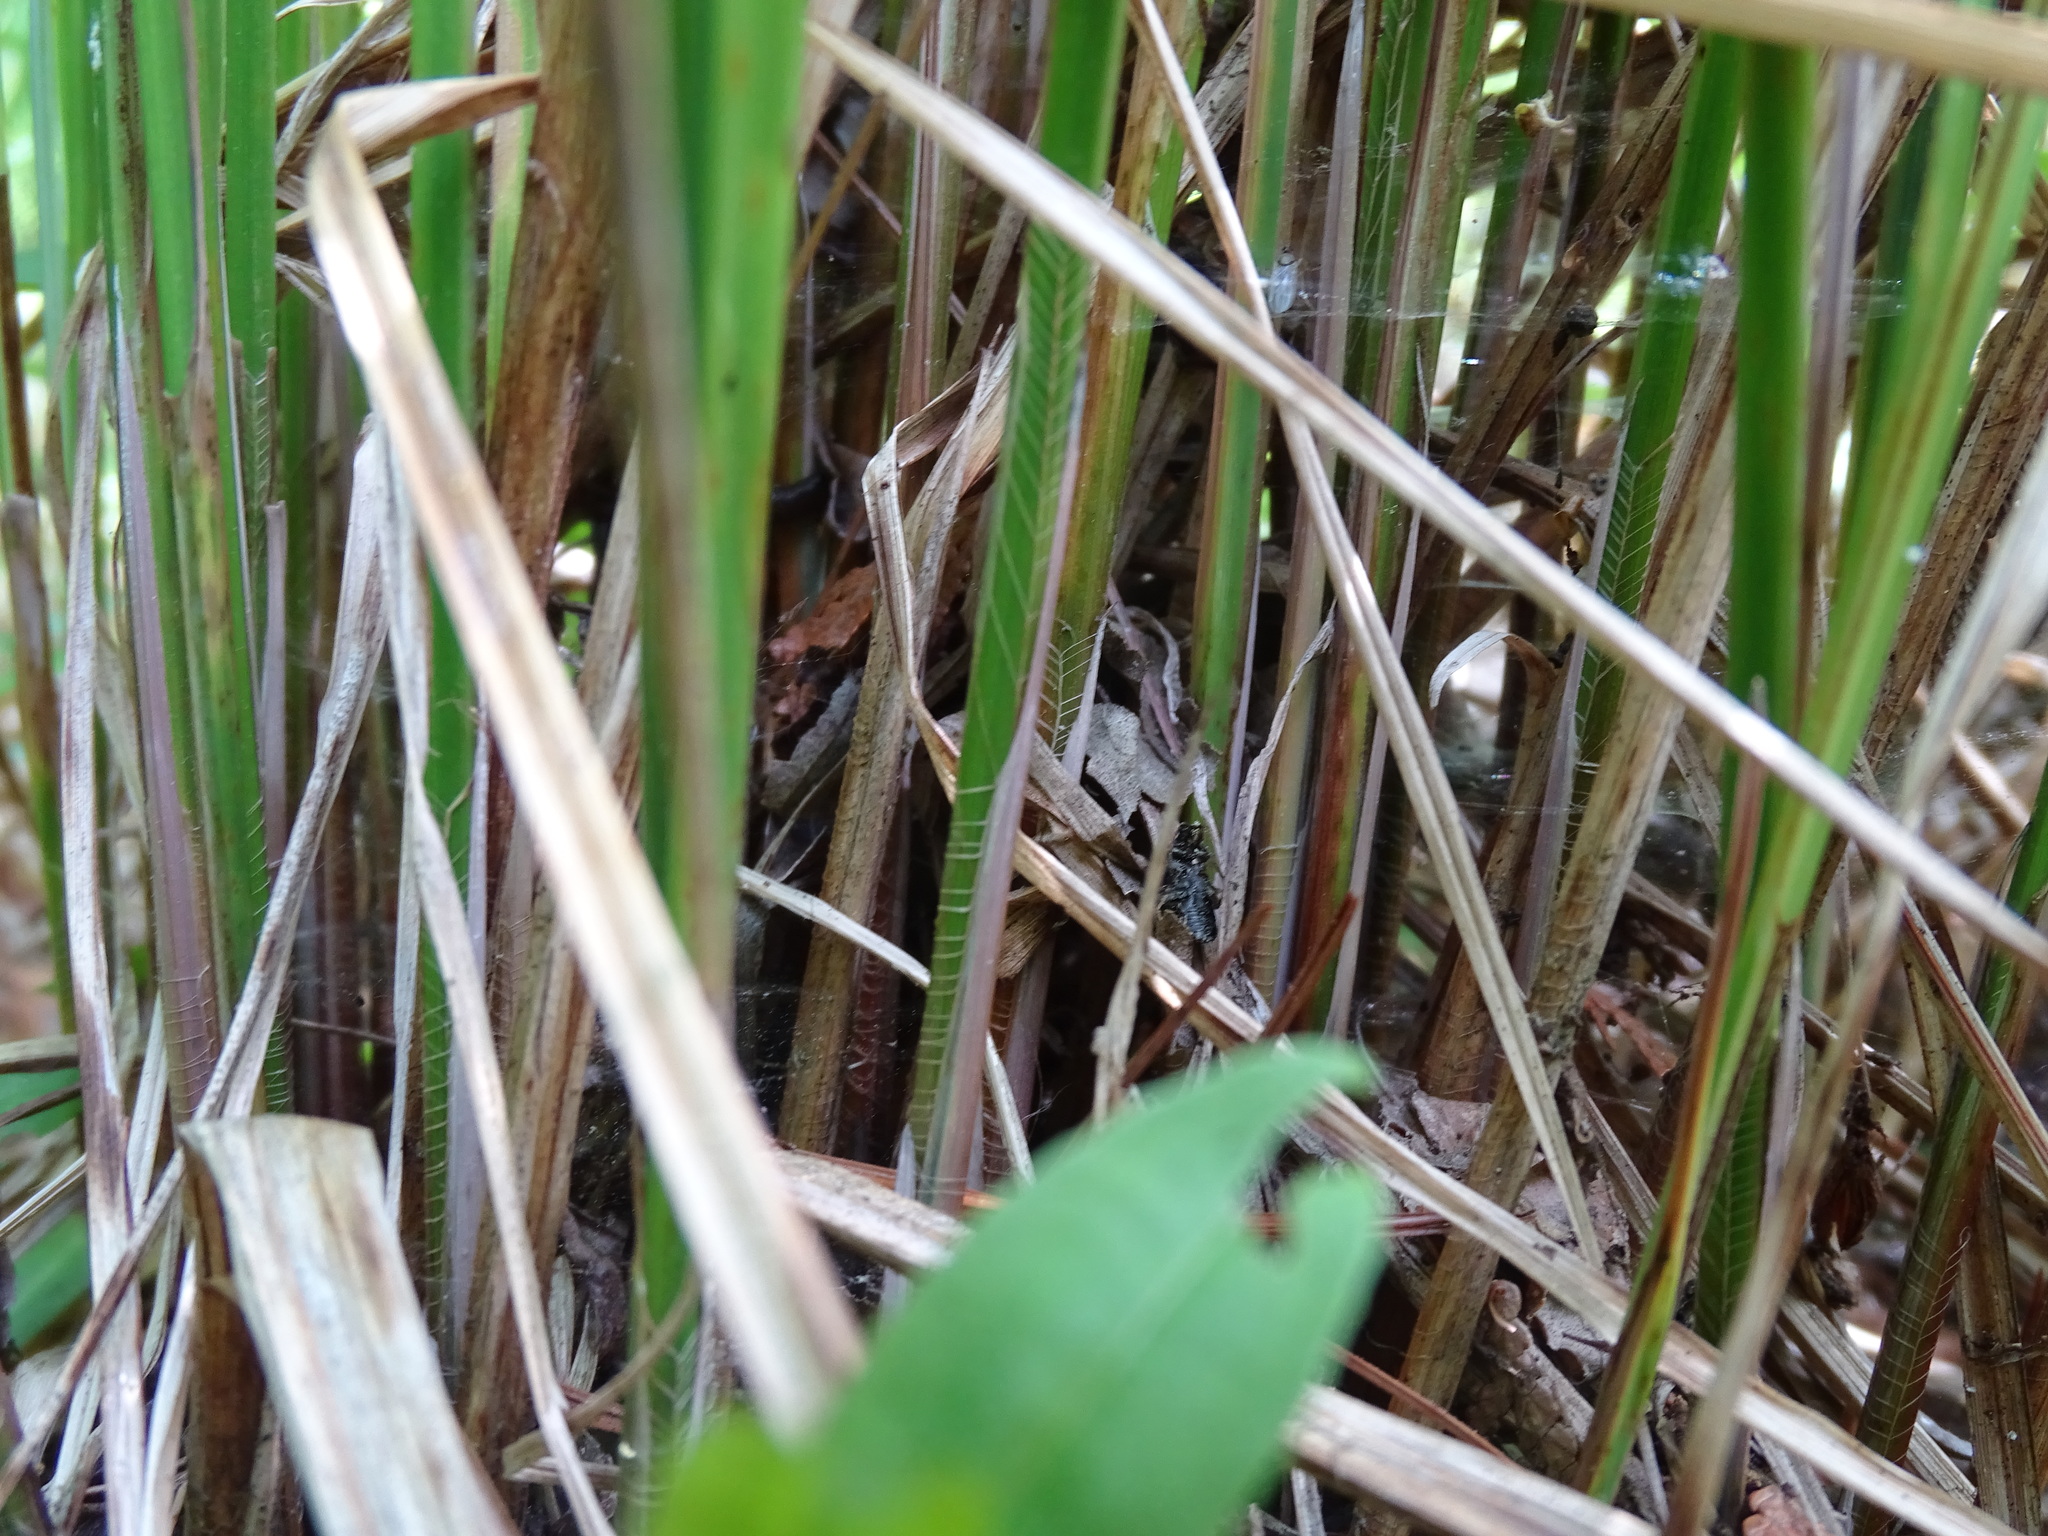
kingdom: Plantae
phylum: Tracheophyta
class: Liliopsida
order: Poales
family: Cyperaceae
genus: Carex
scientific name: Carex stricta
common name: Hummock sedge
